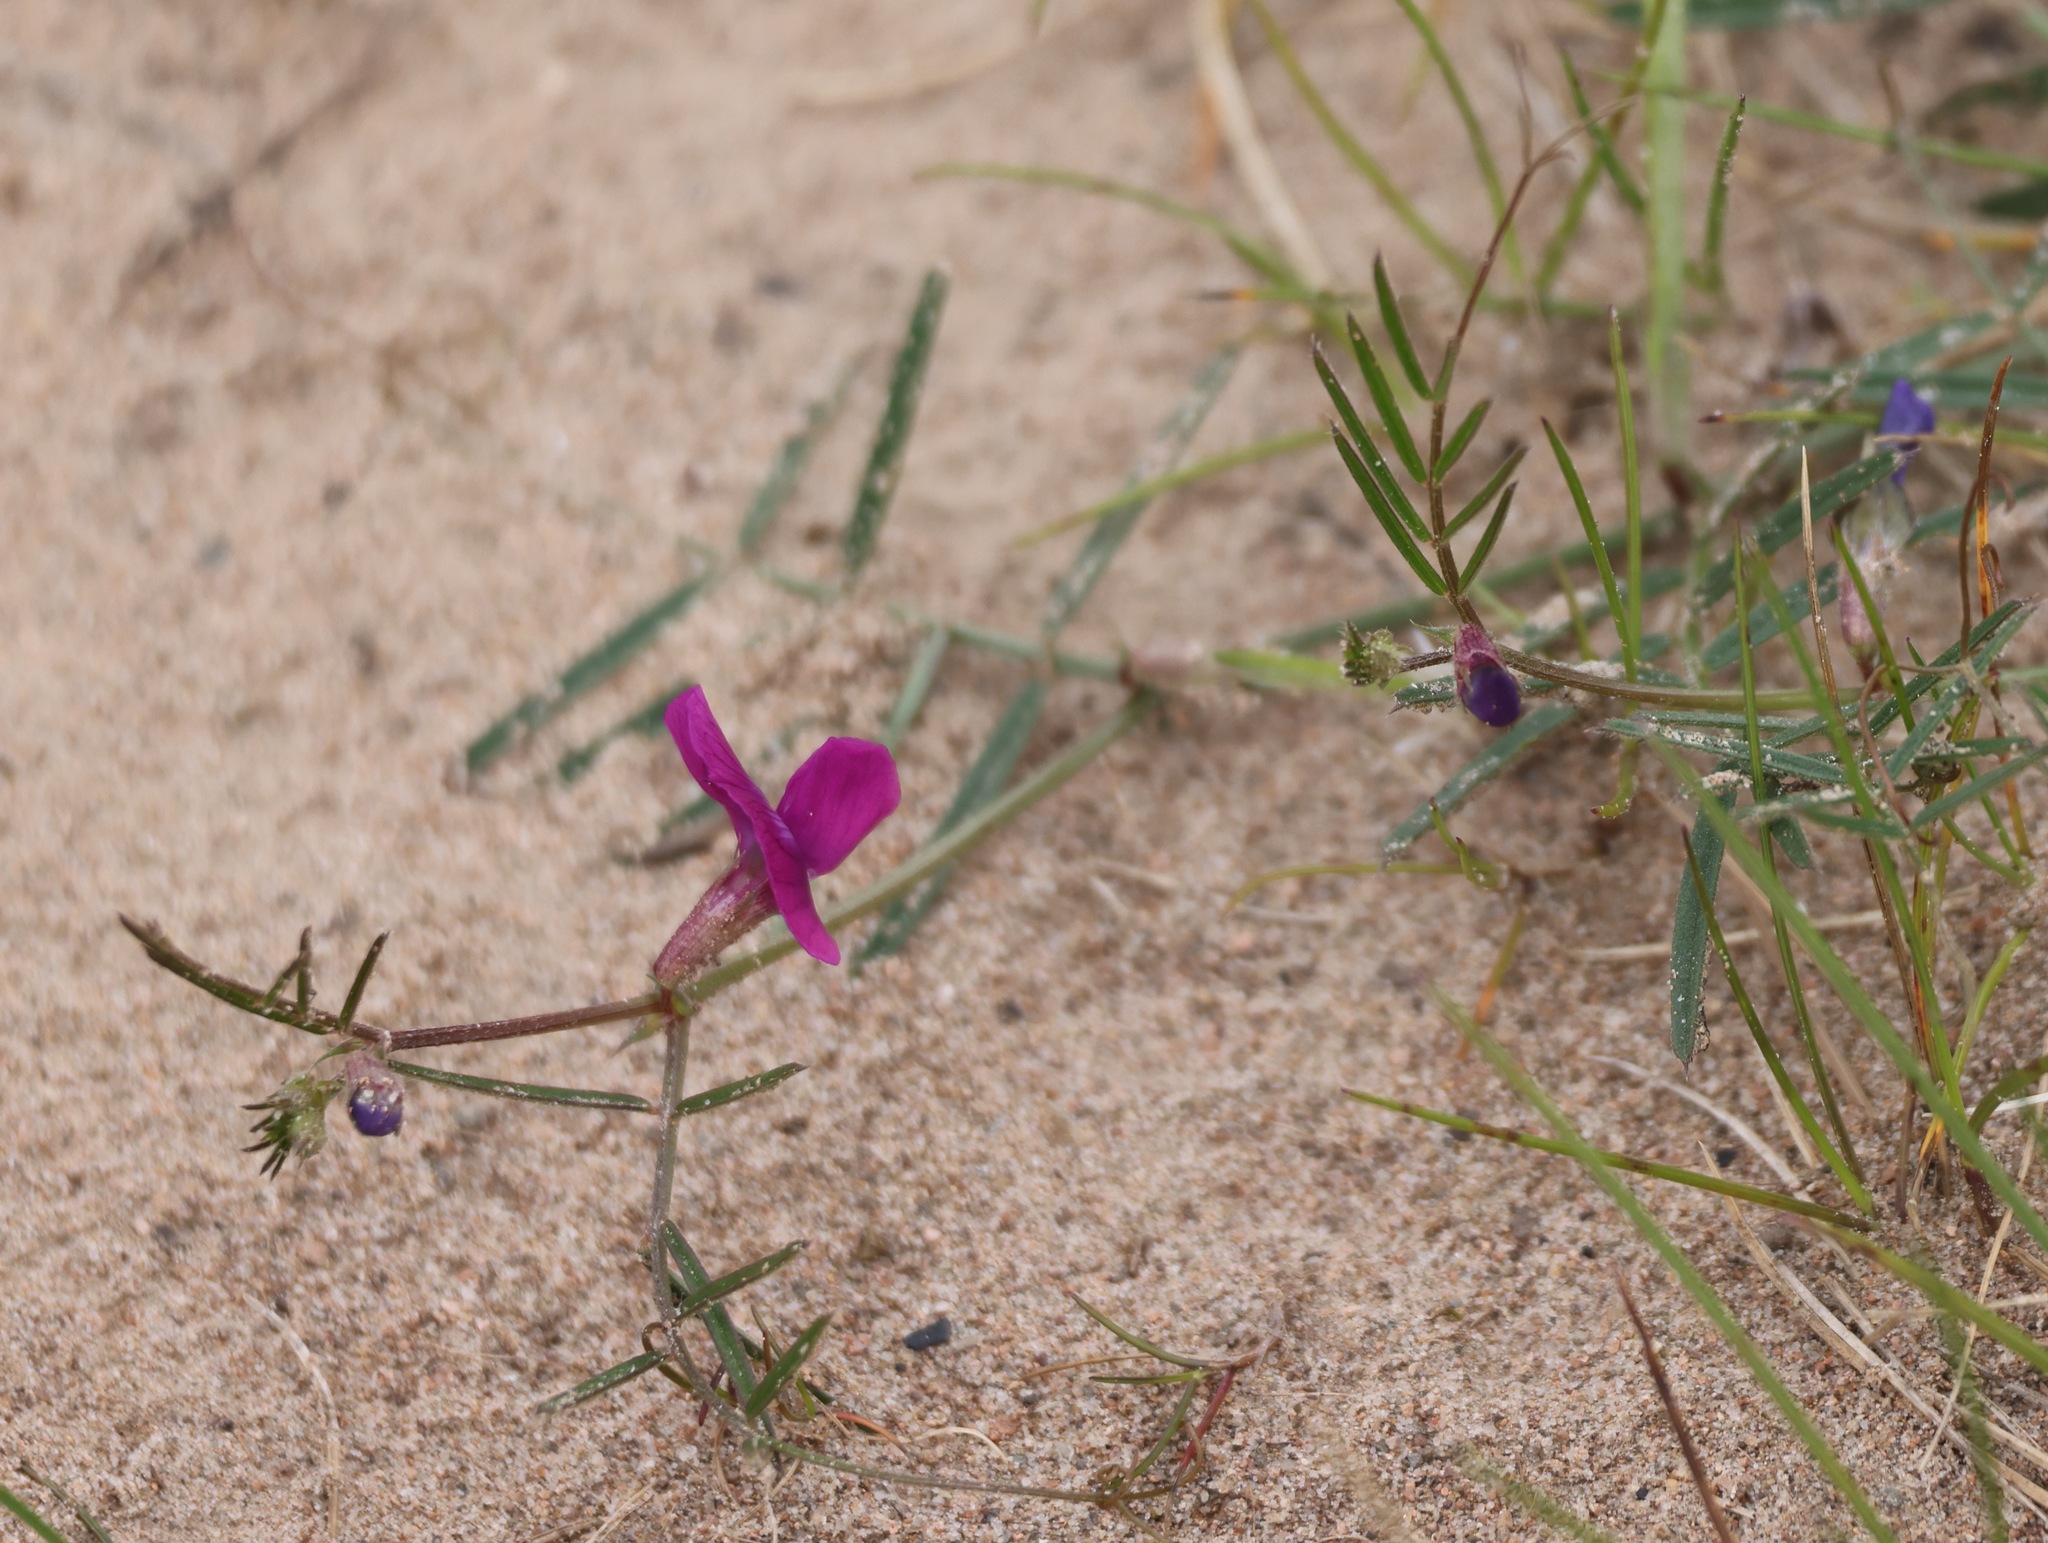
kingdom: Plantae
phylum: Tracheophyta
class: Magnoliopsida
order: Fabales
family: Fabaceae
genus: Vicia
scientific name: Vicia sativa
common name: Garden vetch
